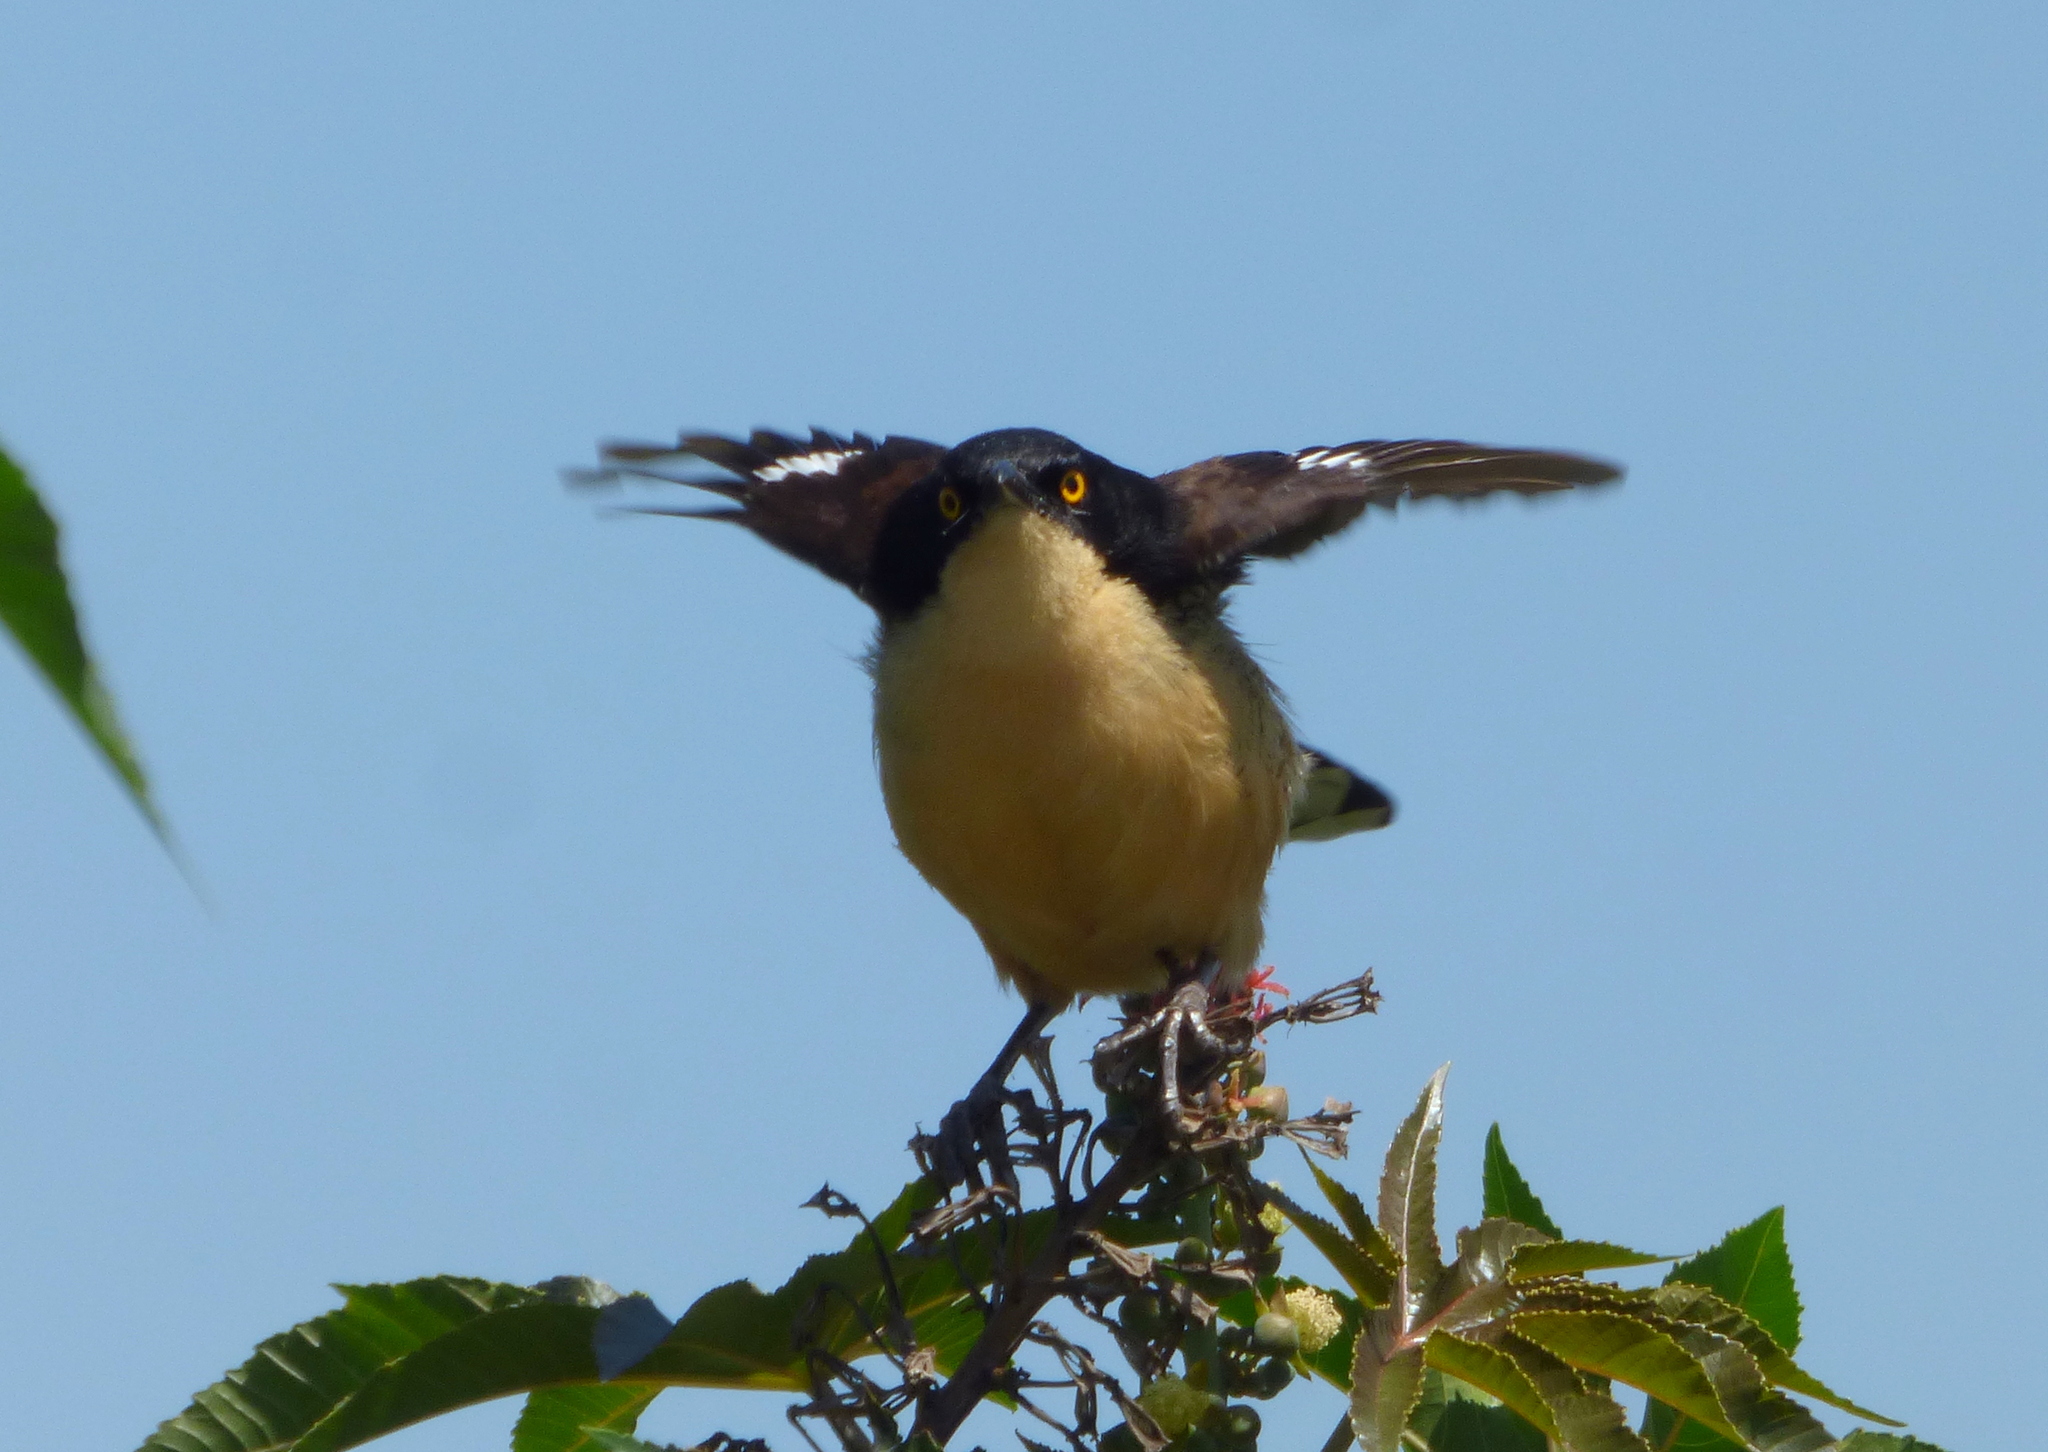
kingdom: Animalia
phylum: Chordata
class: Aves
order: Passeriformes
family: Donacobiidae
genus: Donacobius
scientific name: Donacobius atricapilla
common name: Black-capped donacobius
